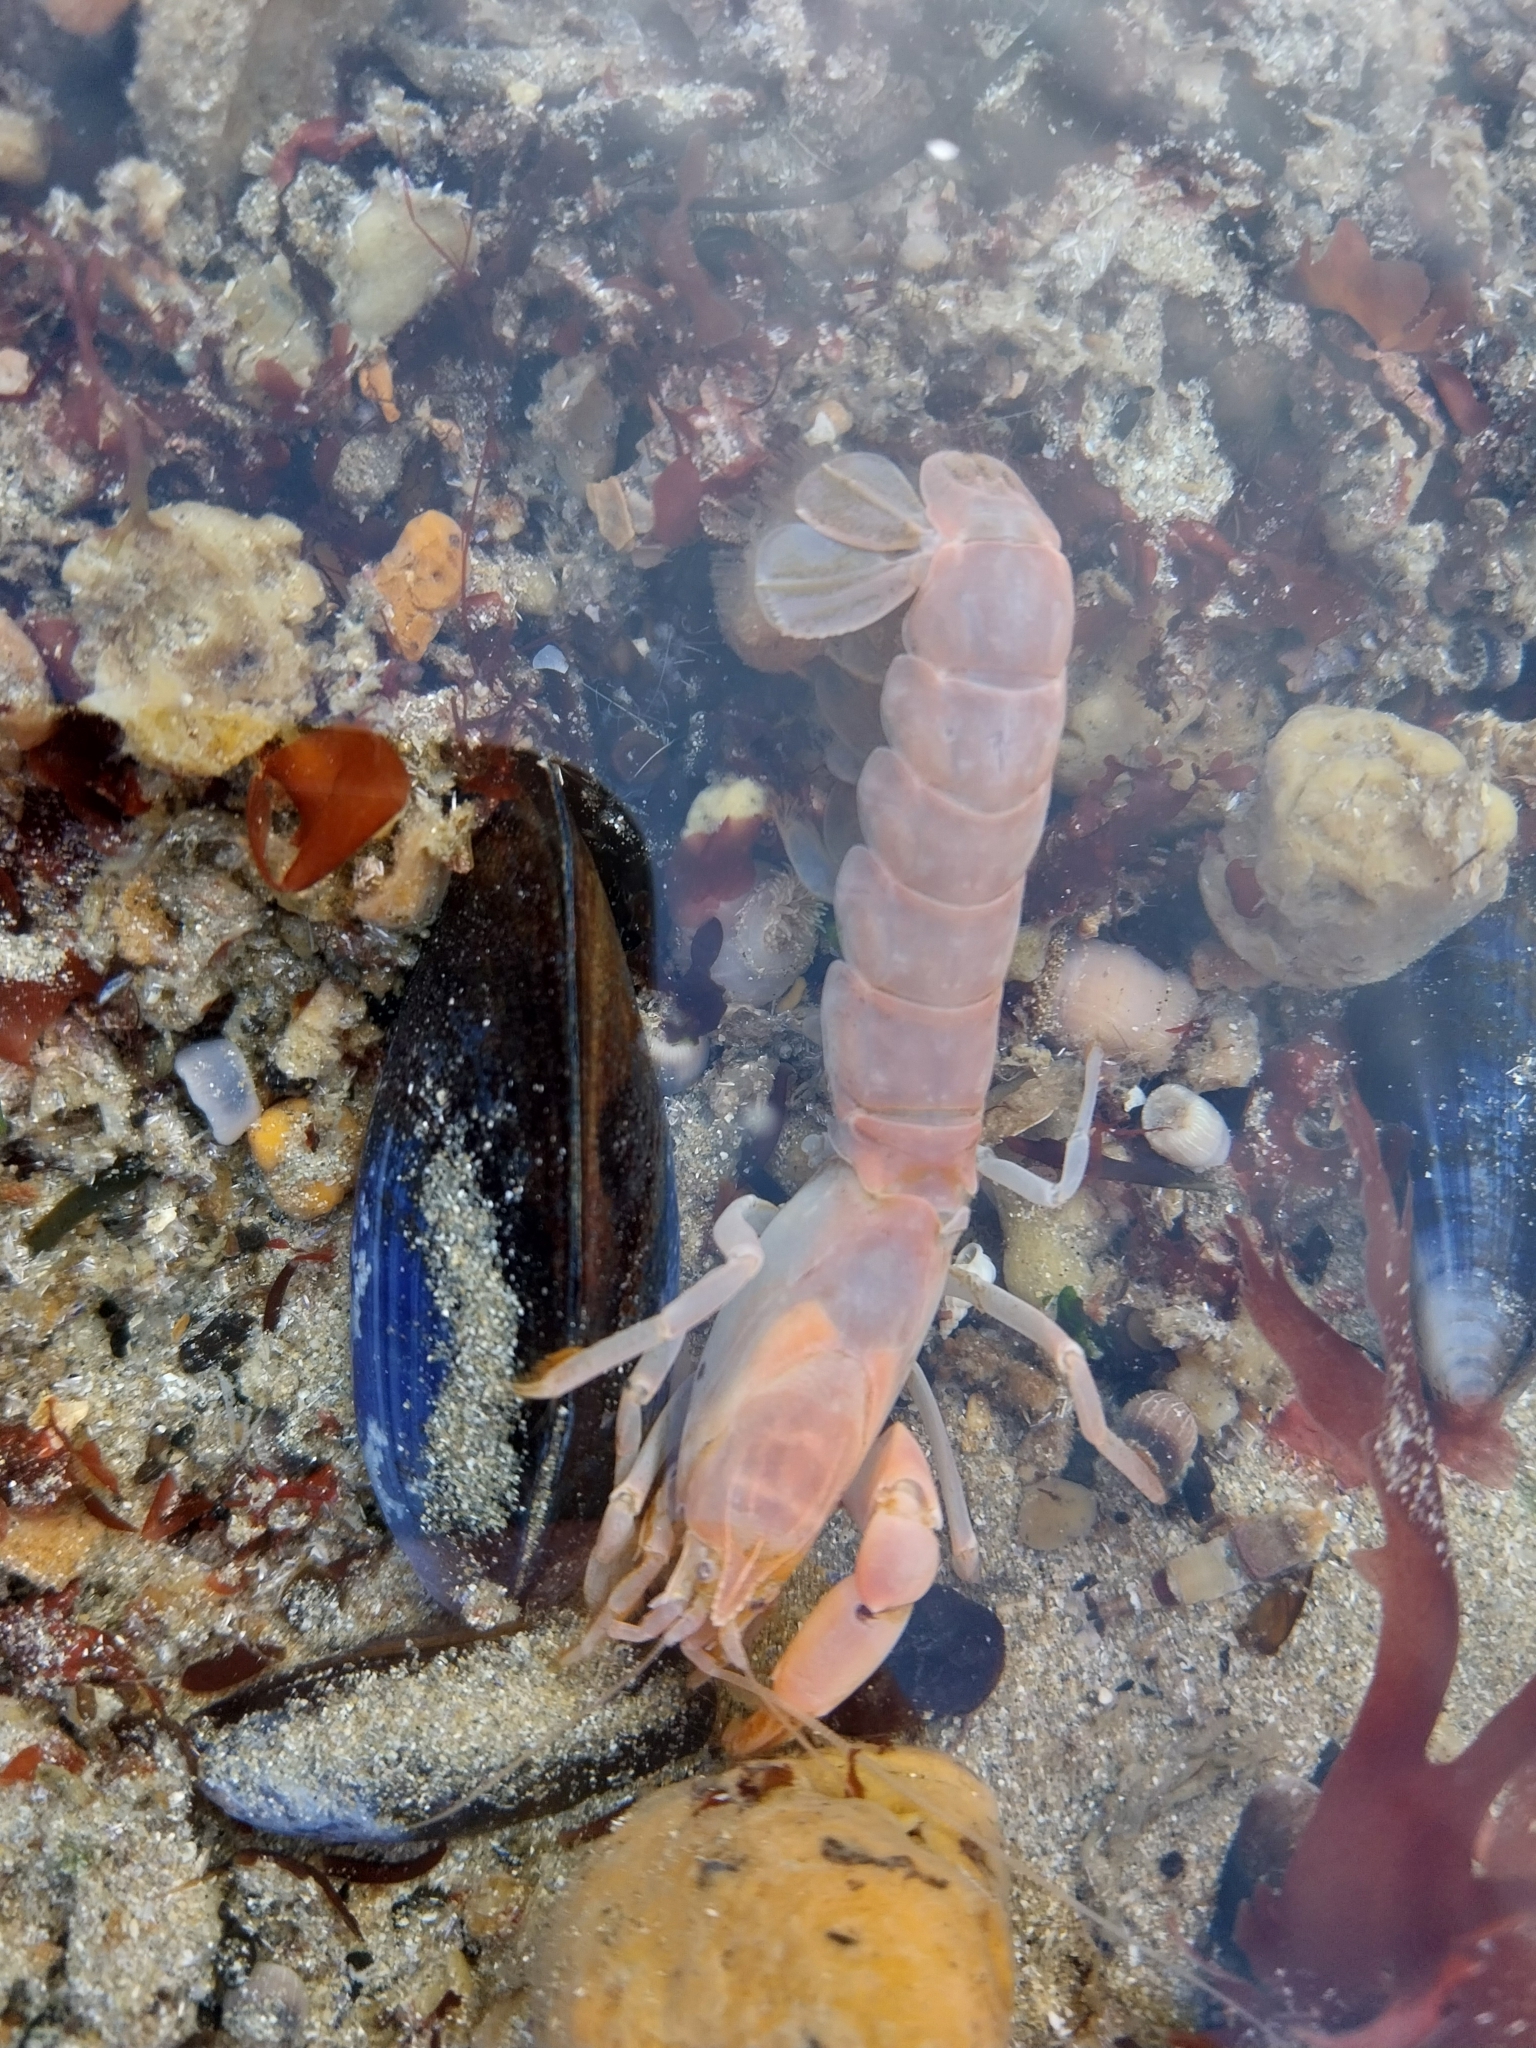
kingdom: Animalia
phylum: Arthropoda
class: Malacostraca
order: Decapoda
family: Callianassidae
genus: Gilvossius
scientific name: Gilvossius tyrrhenus
